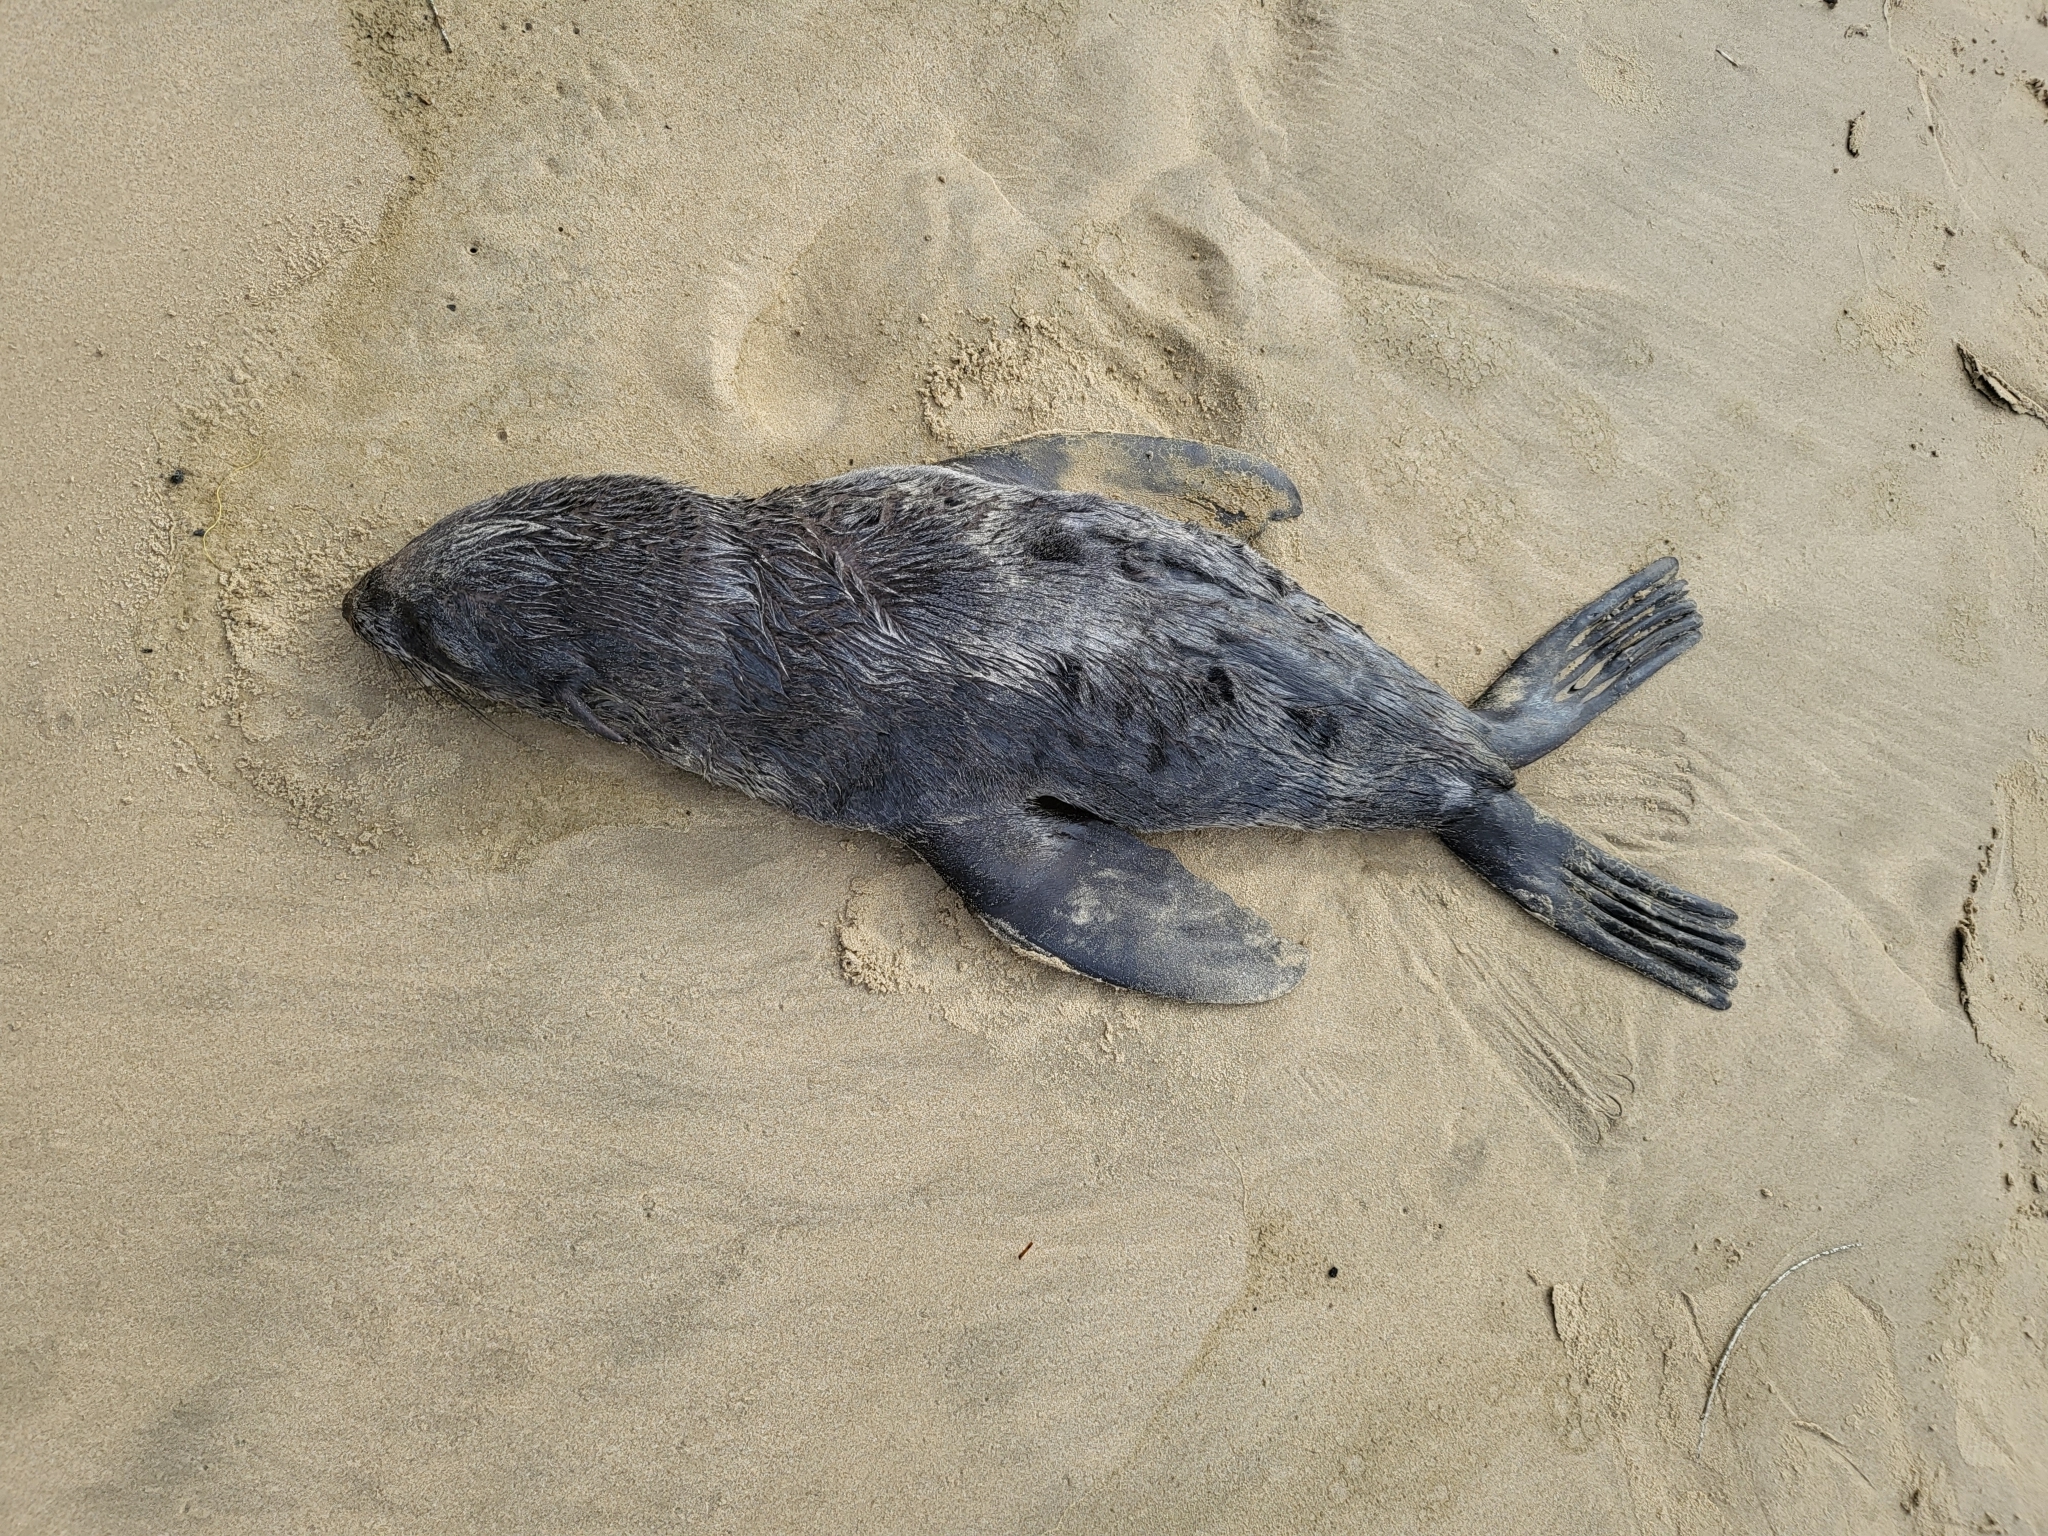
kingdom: Animalia
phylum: Chordata
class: Mammalia
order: Carnivora
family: Otariidae
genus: Callorhinus
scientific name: Callorhinus ursinus
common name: Northern fur seal
